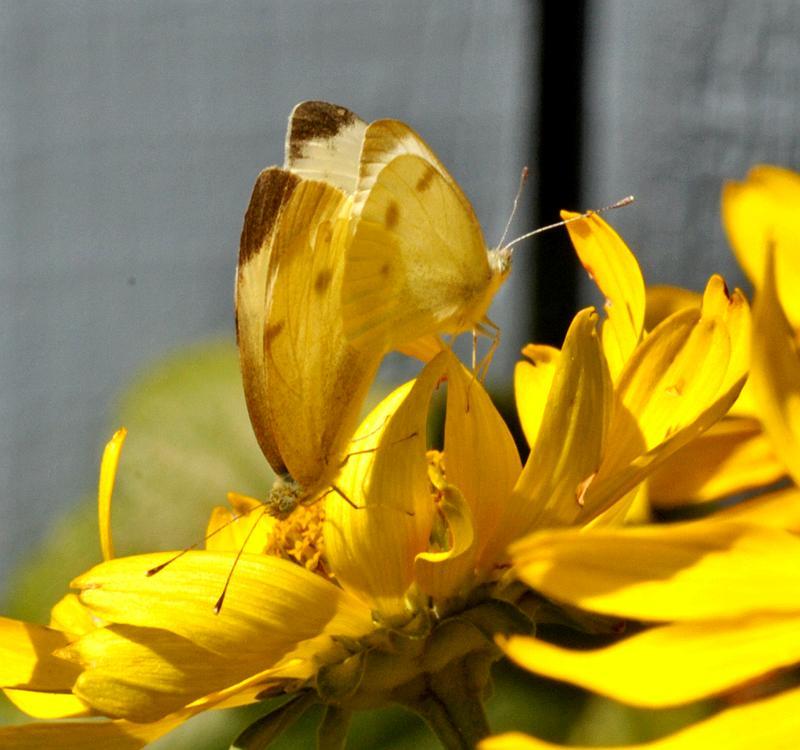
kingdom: Animalia
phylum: Arthropoda
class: Insecta
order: Lepidoptera
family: Pieridae
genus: Pieris
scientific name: Pieris rapae
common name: Small white
